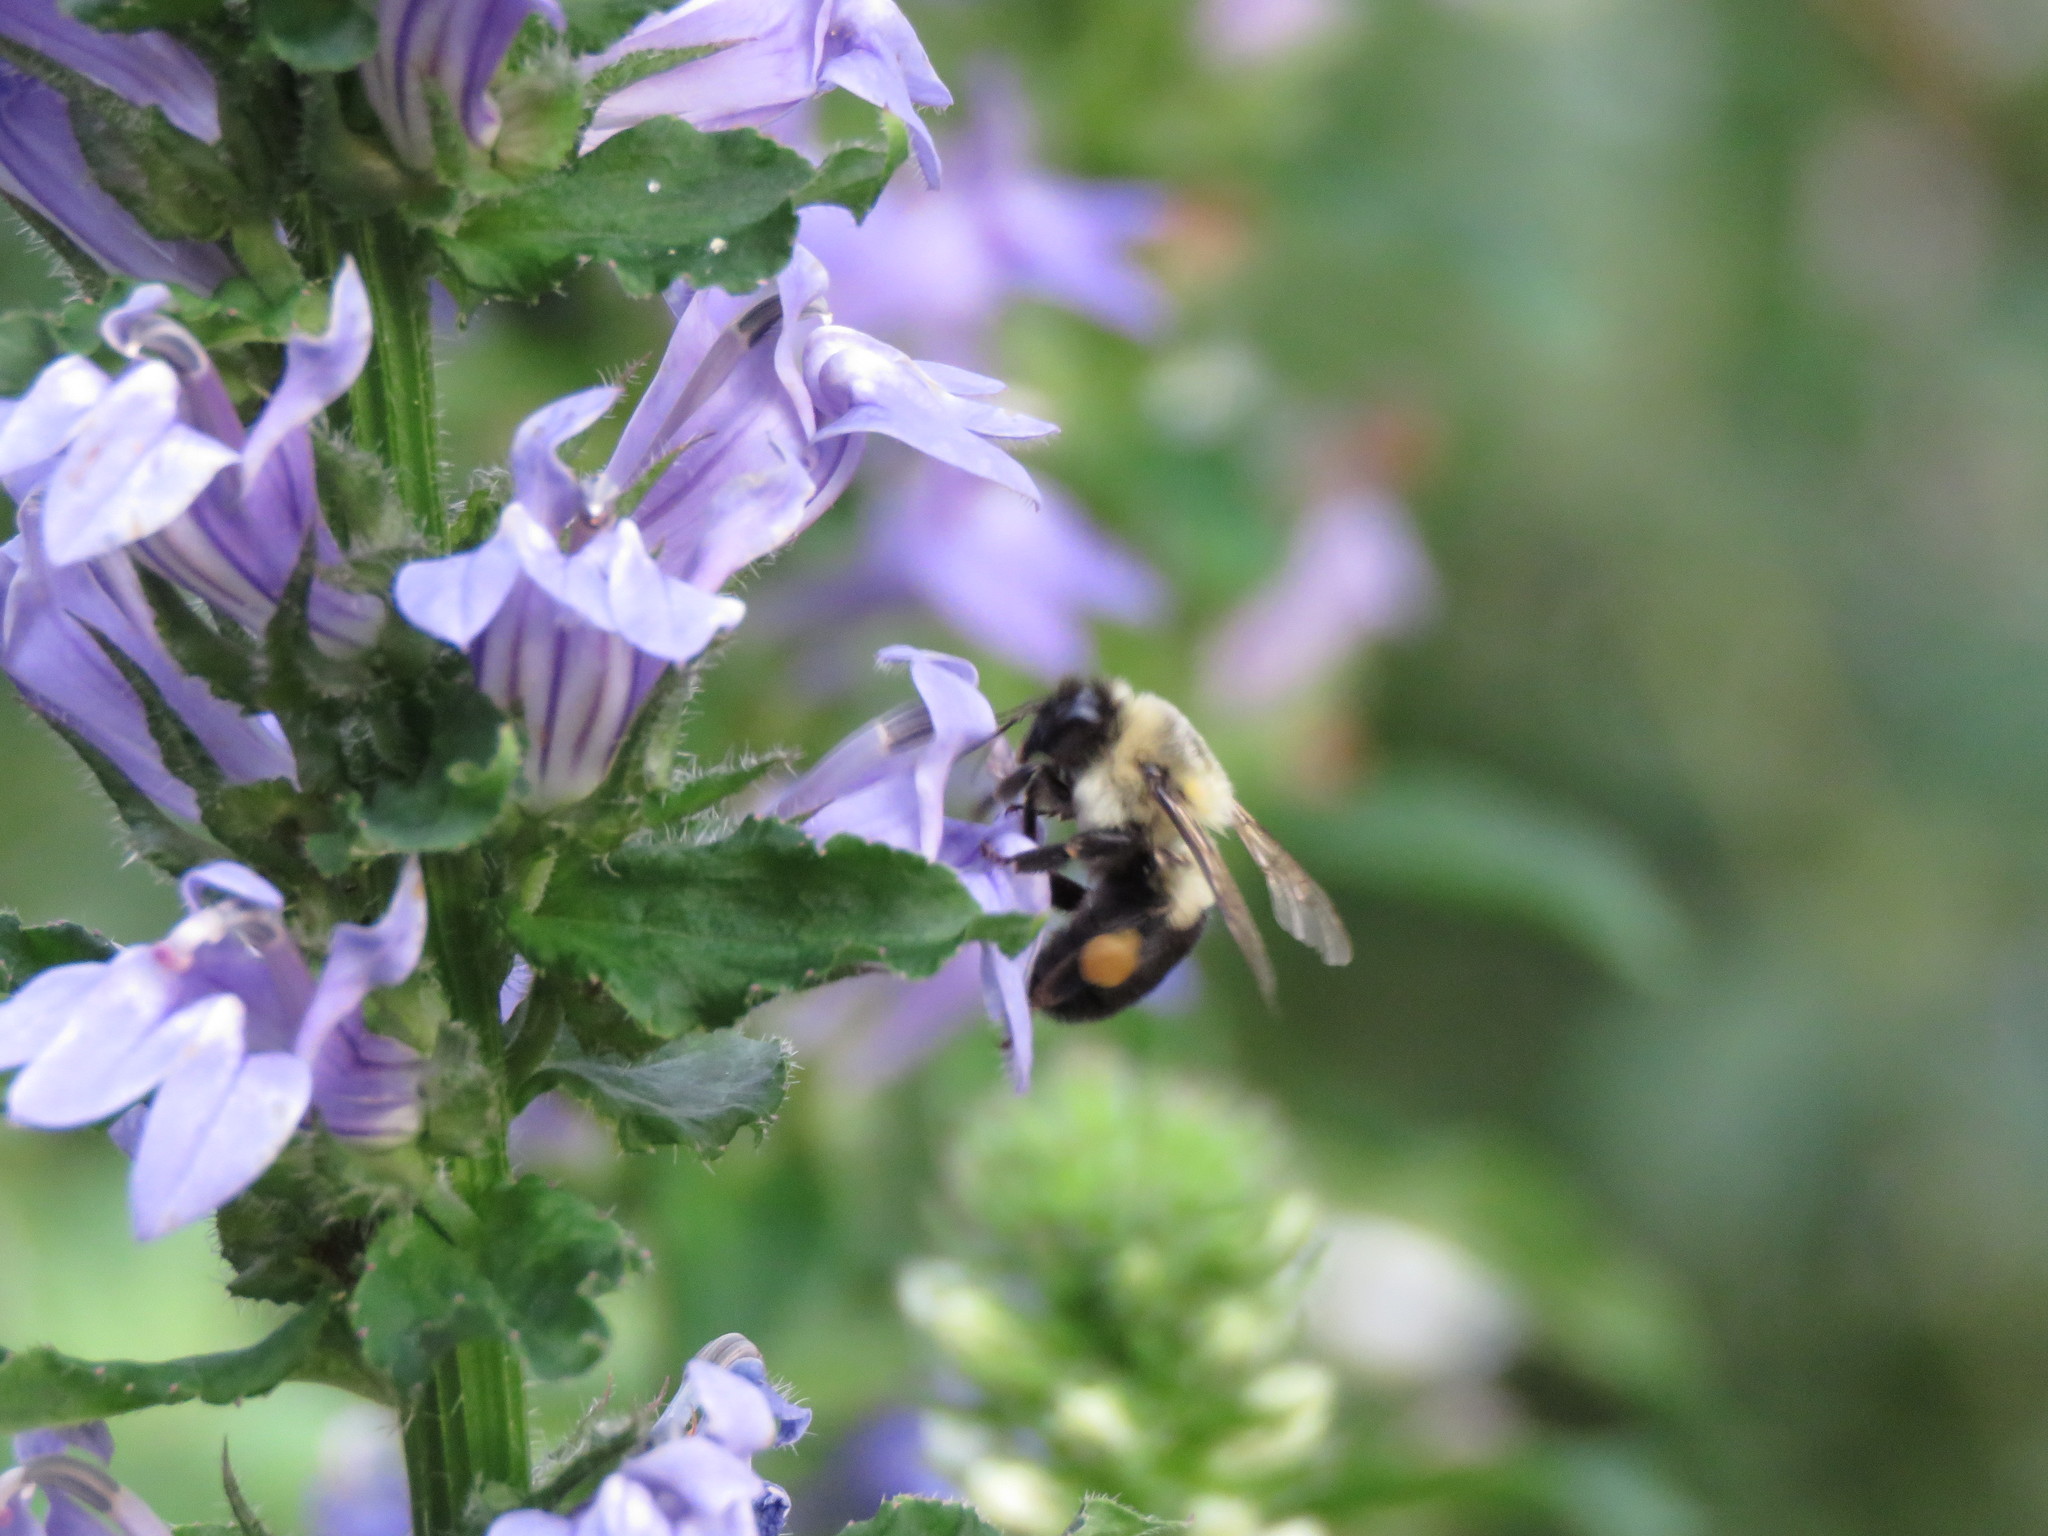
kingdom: Animalia
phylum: Arthropoda
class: Insecta
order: Hymenoptera
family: Apidae
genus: Bombus
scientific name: Bombus impatiens
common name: Common eastern bumble bee
